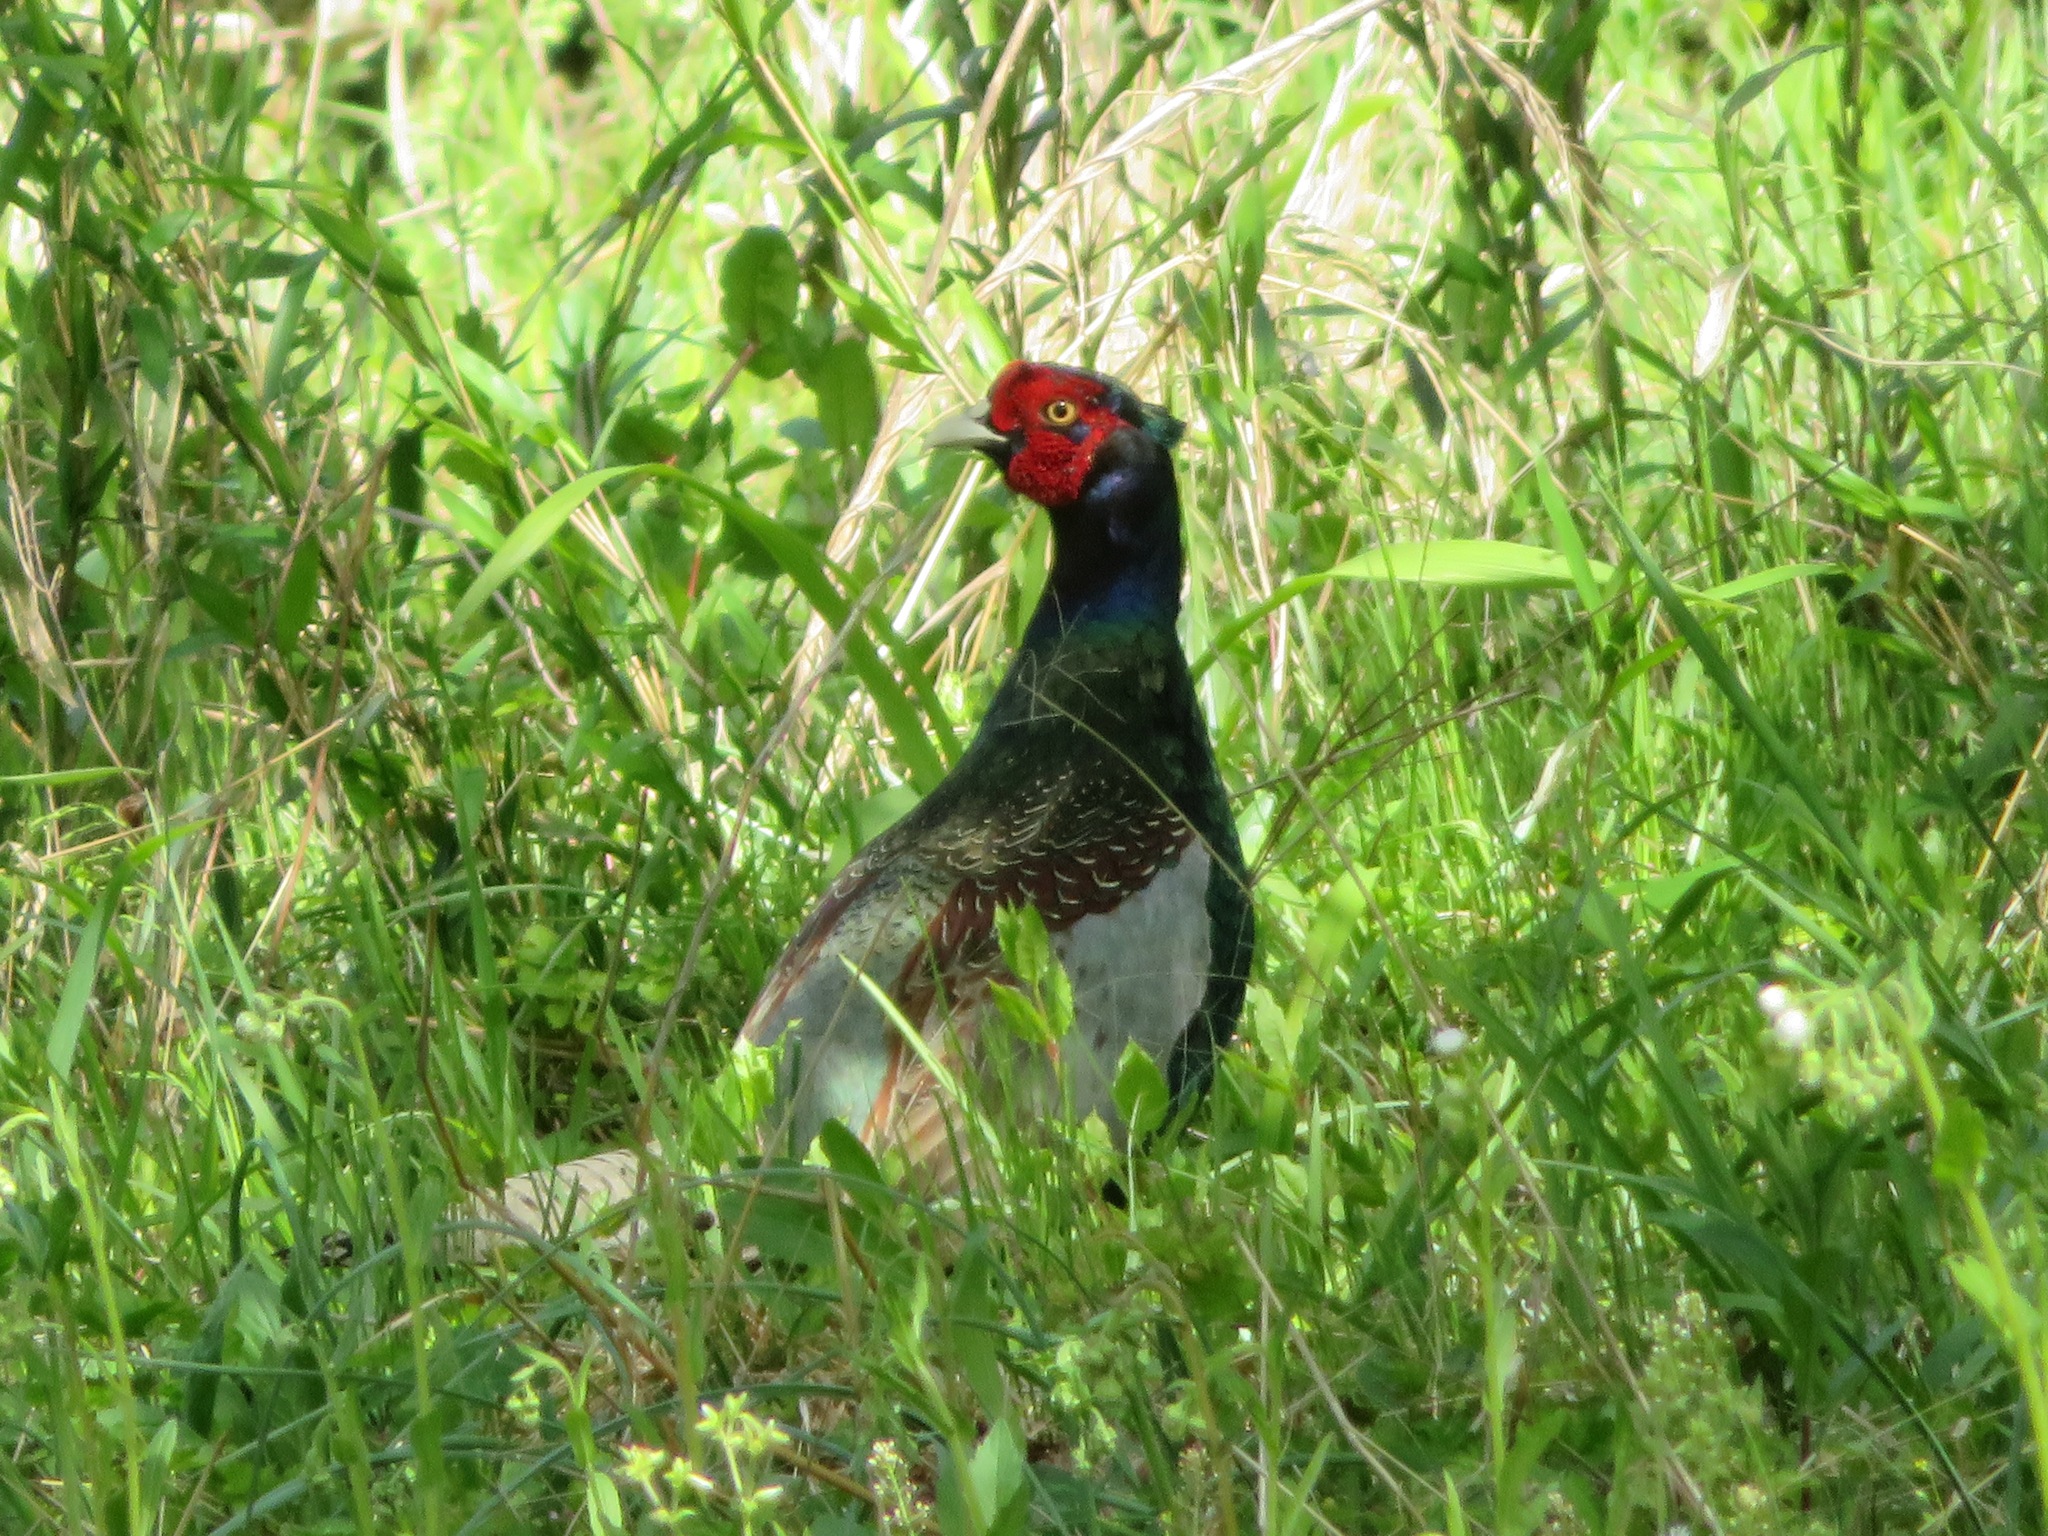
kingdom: Animalia
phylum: Chordata
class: Aves
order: Galliformes
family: Phasianidae
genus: Phasianus
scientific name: Phasianus versicolor
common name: Green pheasant
